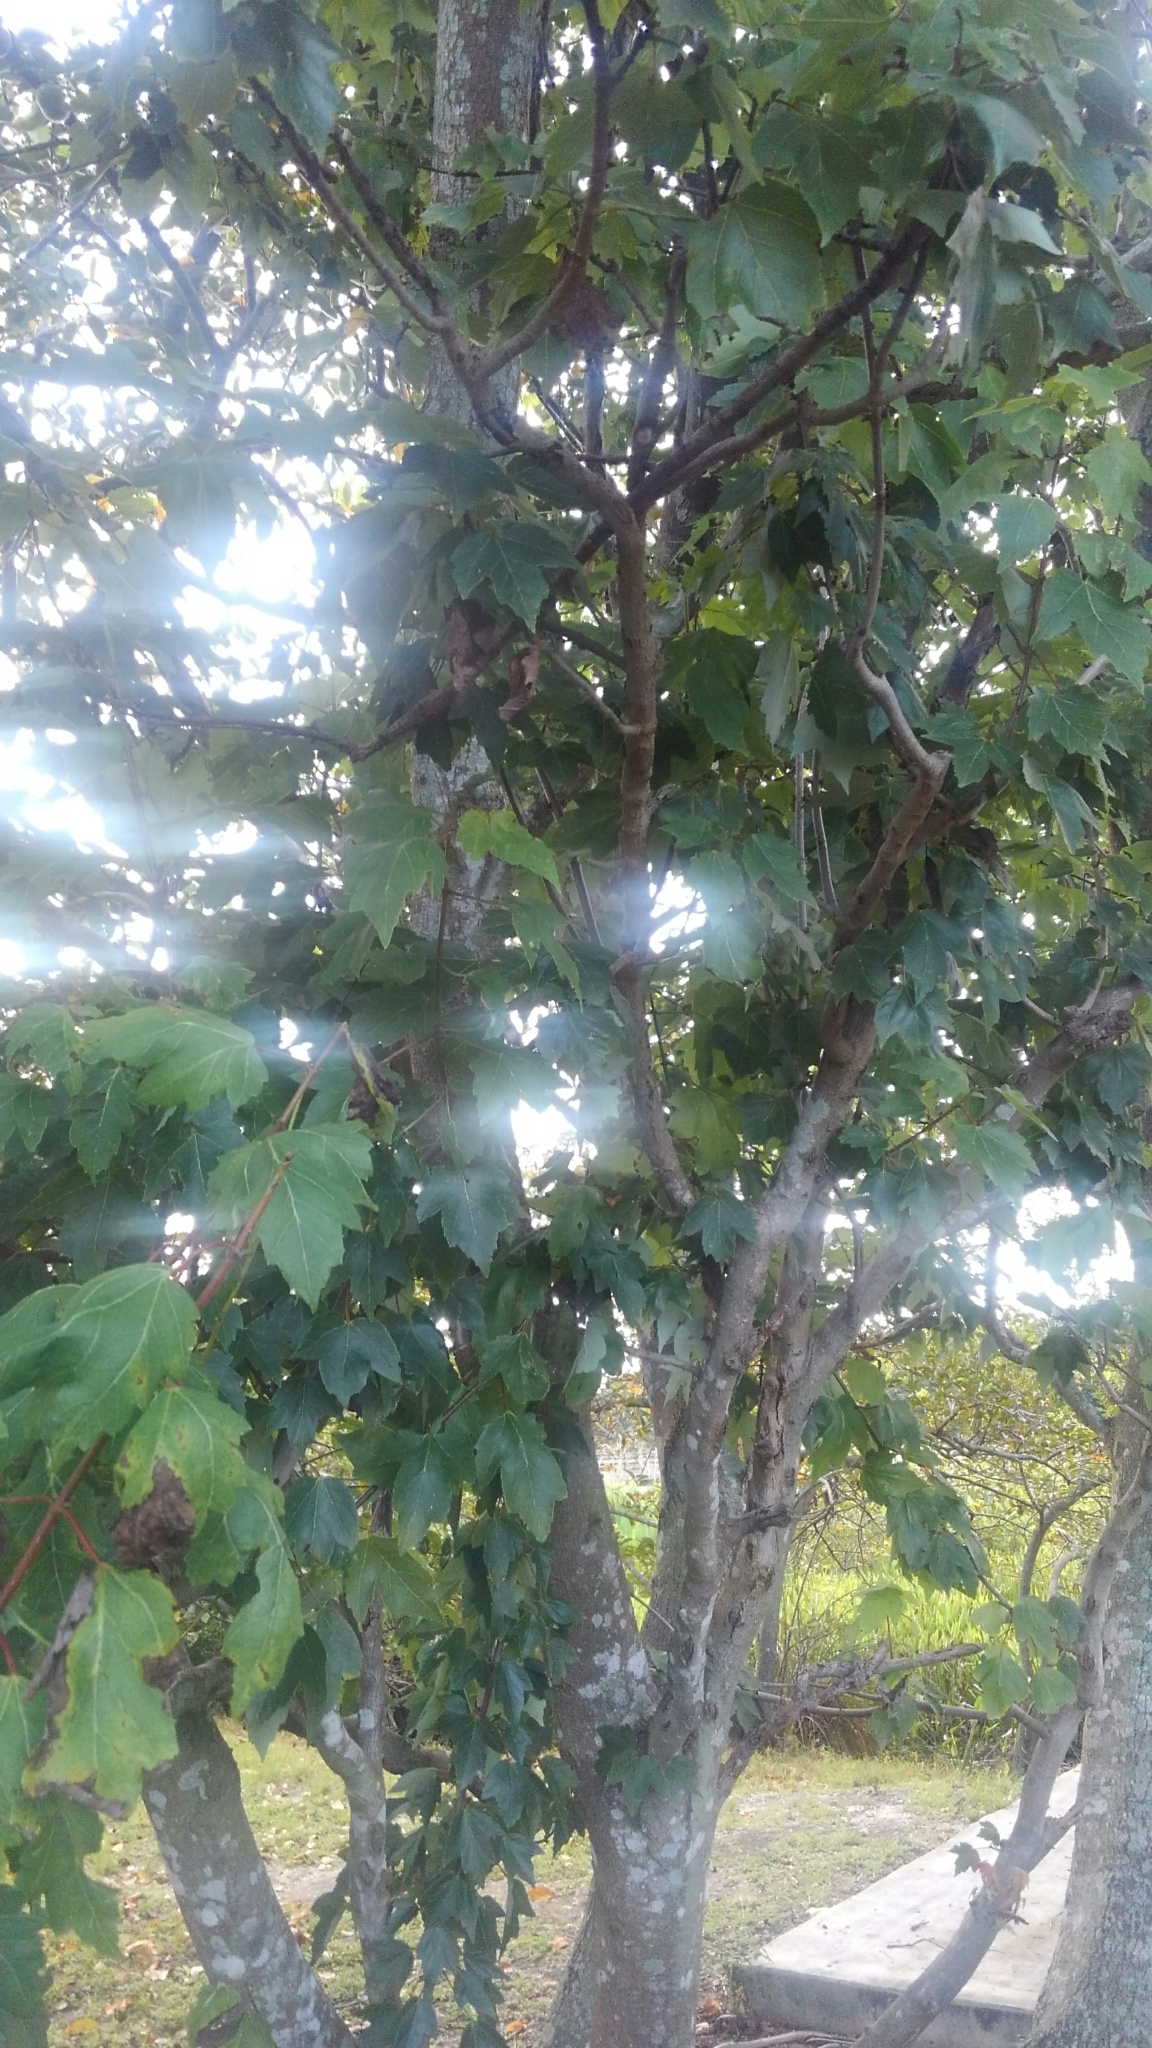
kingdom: Plantae
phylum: Tracheophyta
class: Magnoliopsida
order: Sapindales
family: Sapindaceae
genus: Acer
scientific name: Acer rubrum
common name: Red maple
